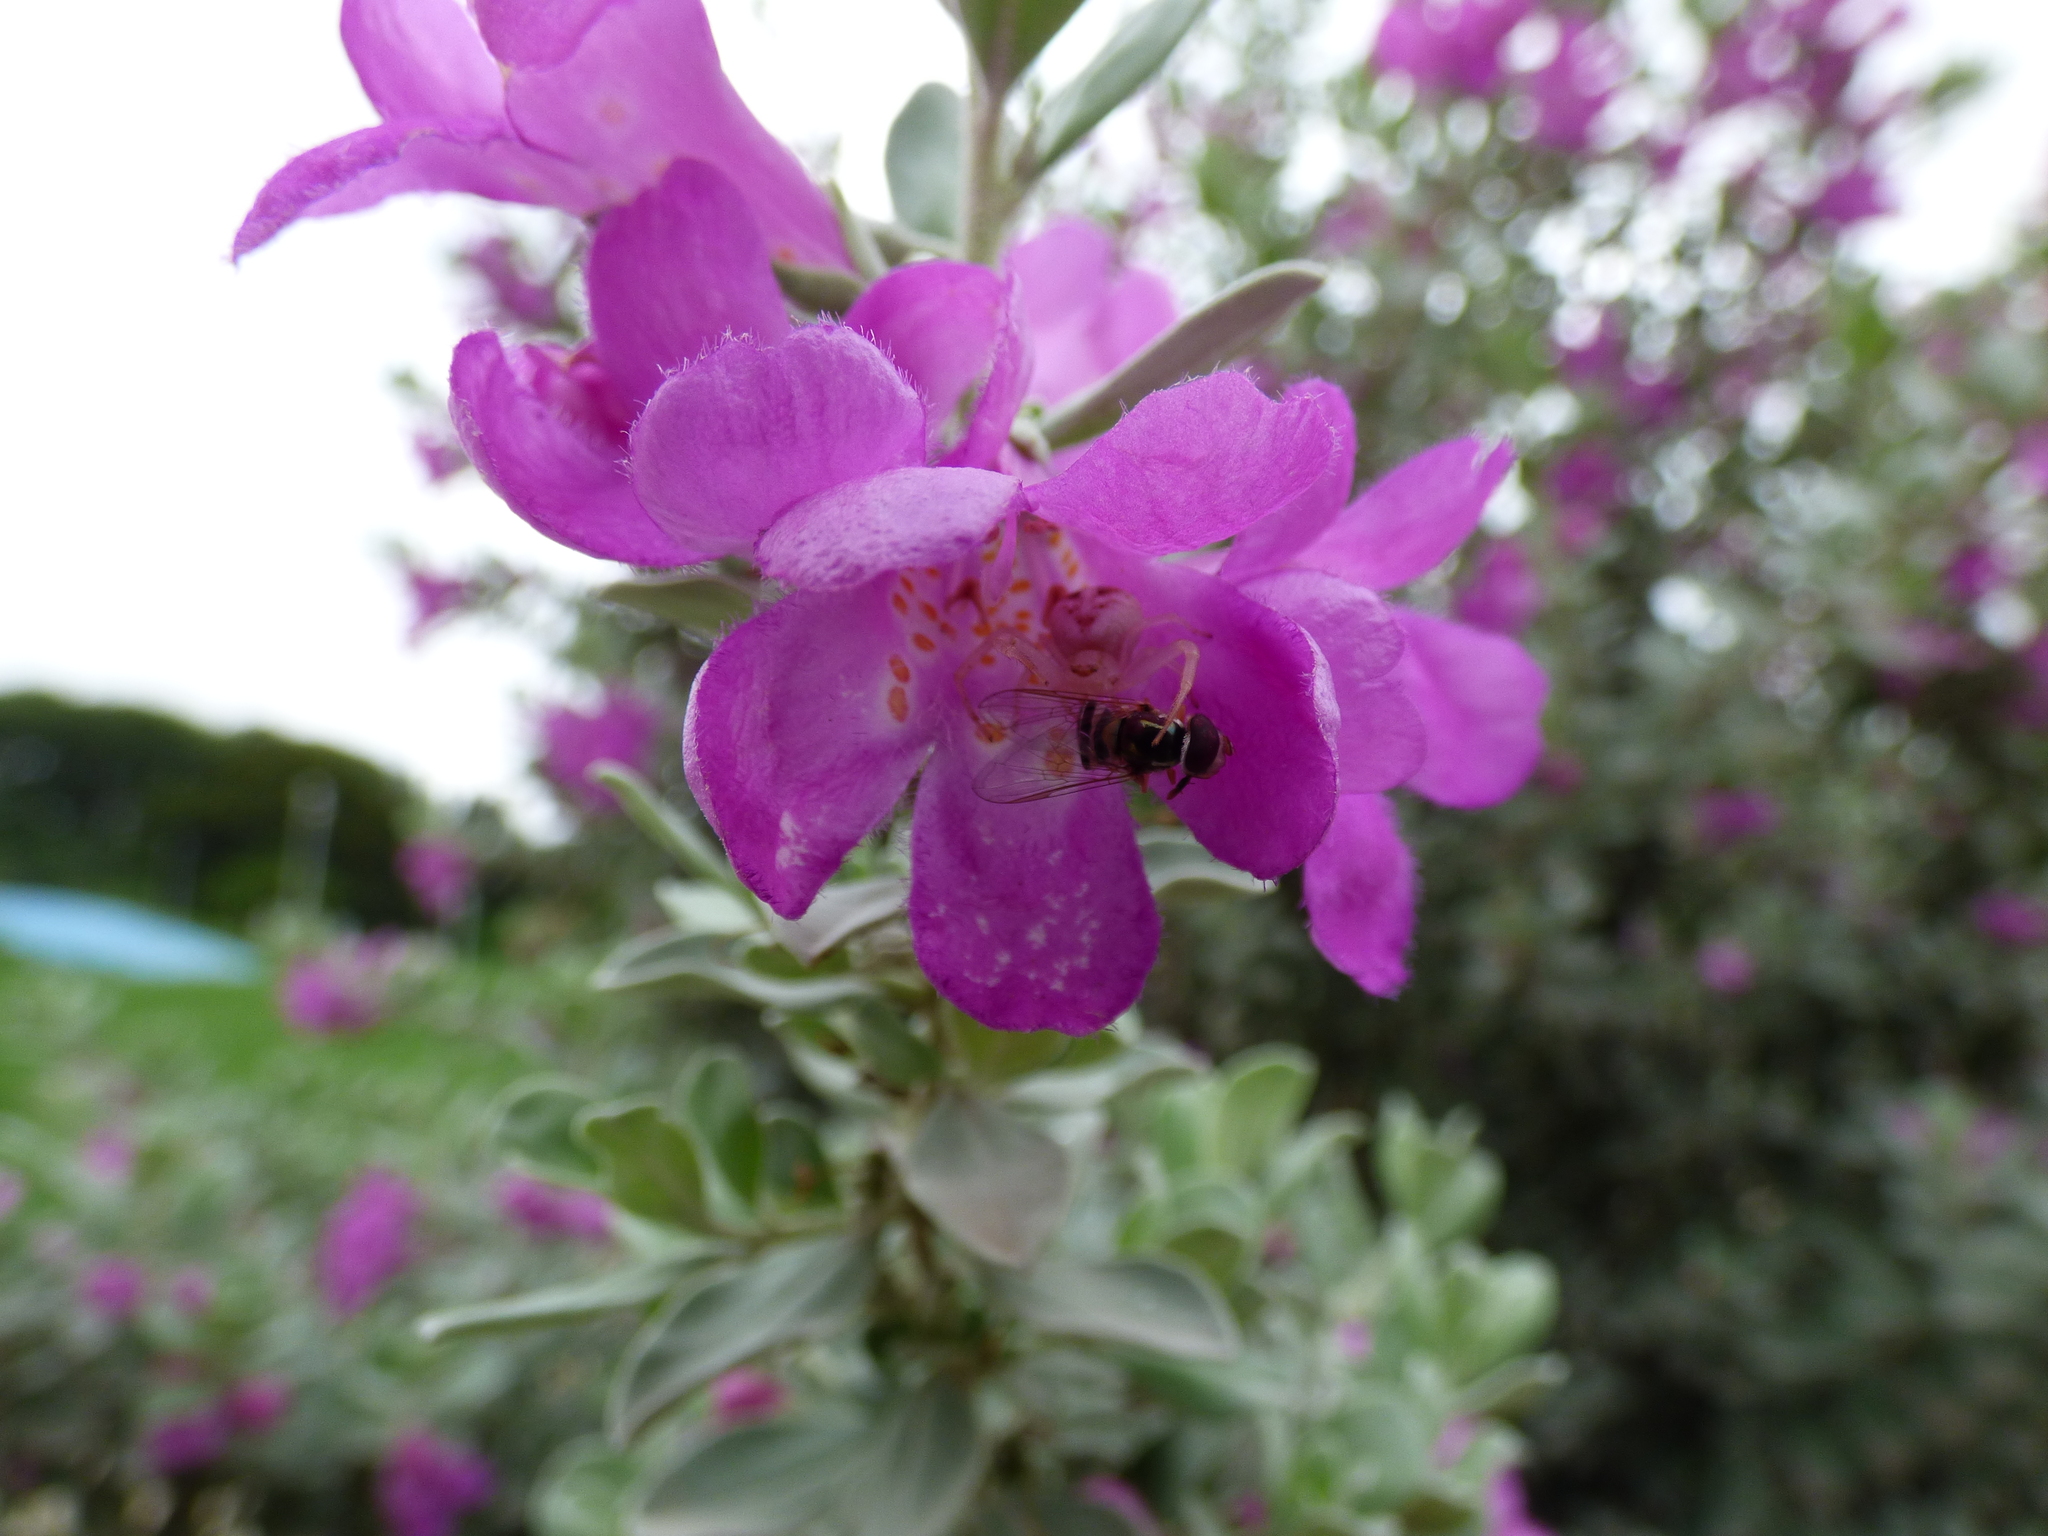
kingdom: Animalia
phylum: Arthropoda
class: Arachnida
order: Araneae
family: Thomisidae
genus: Misumenops
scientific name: Misumenops
